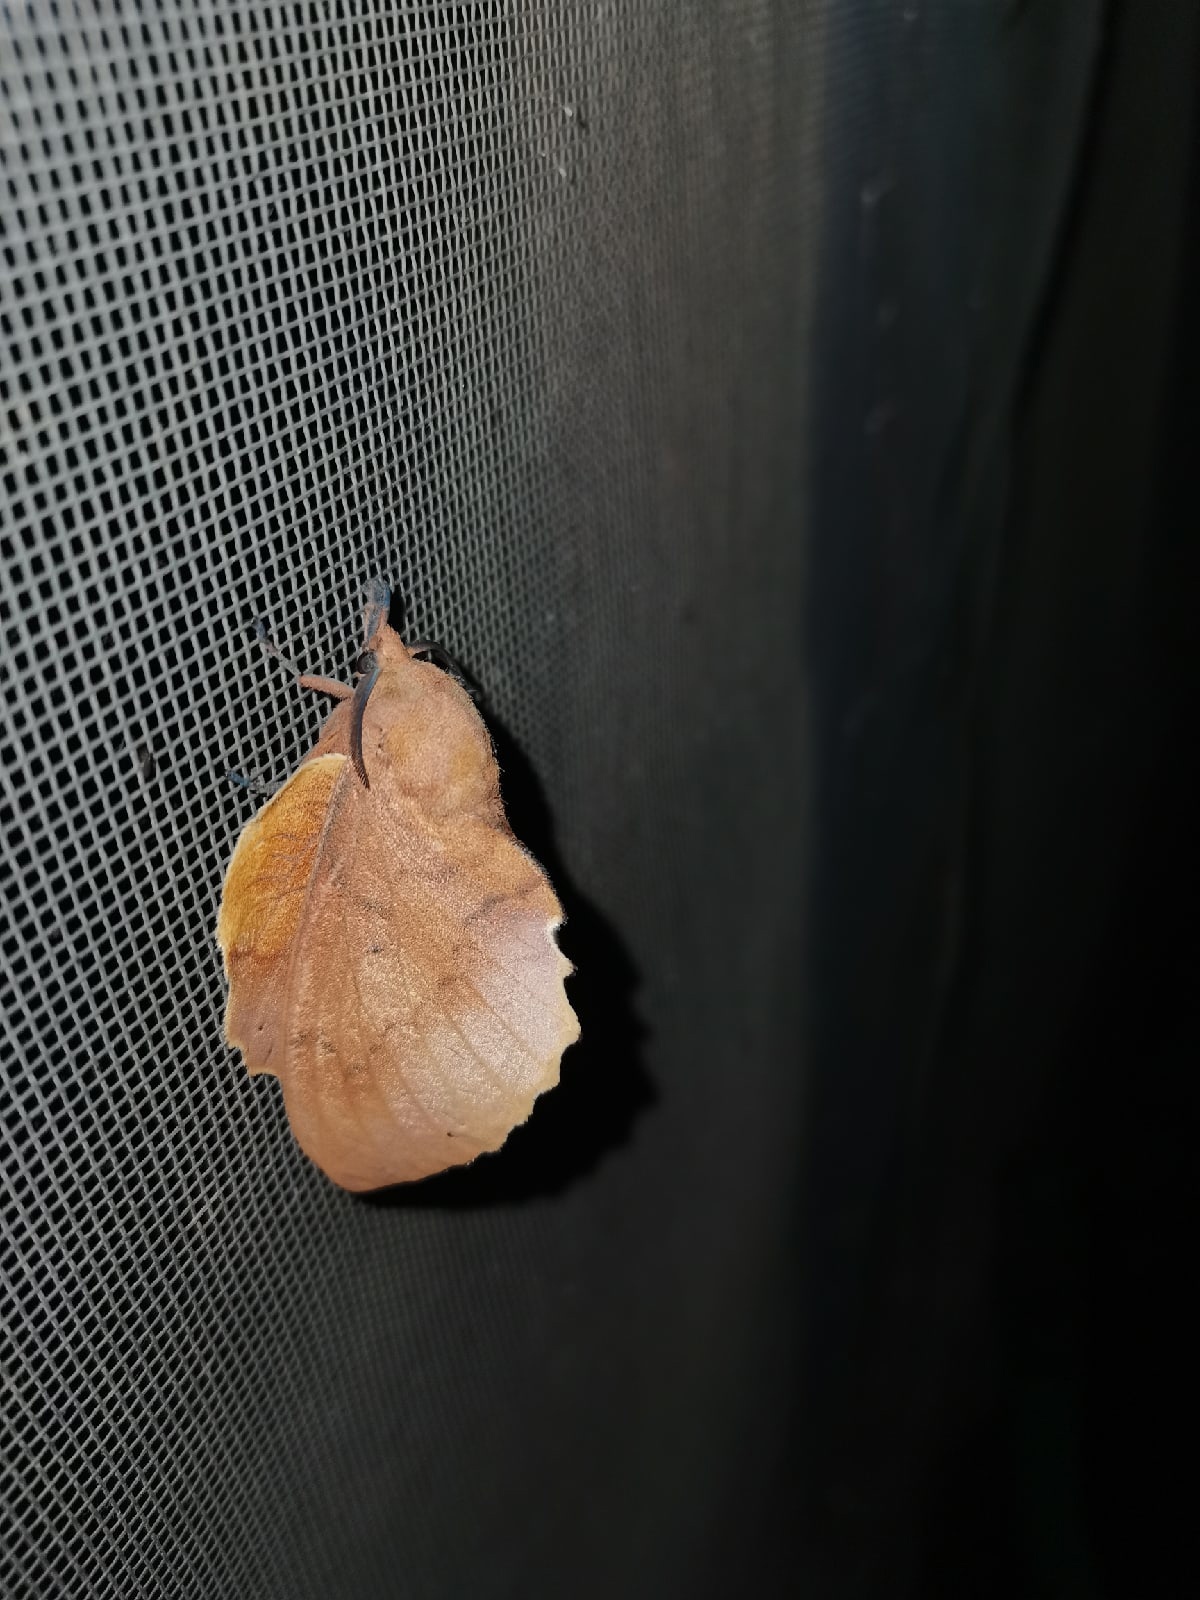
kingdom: Animalia
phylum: Arthropoda
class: Insecta
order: Lepidoptera
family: Lasiocampidae
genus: Gastropacha
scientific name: Gastropacha quercifolia
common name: Lappet
